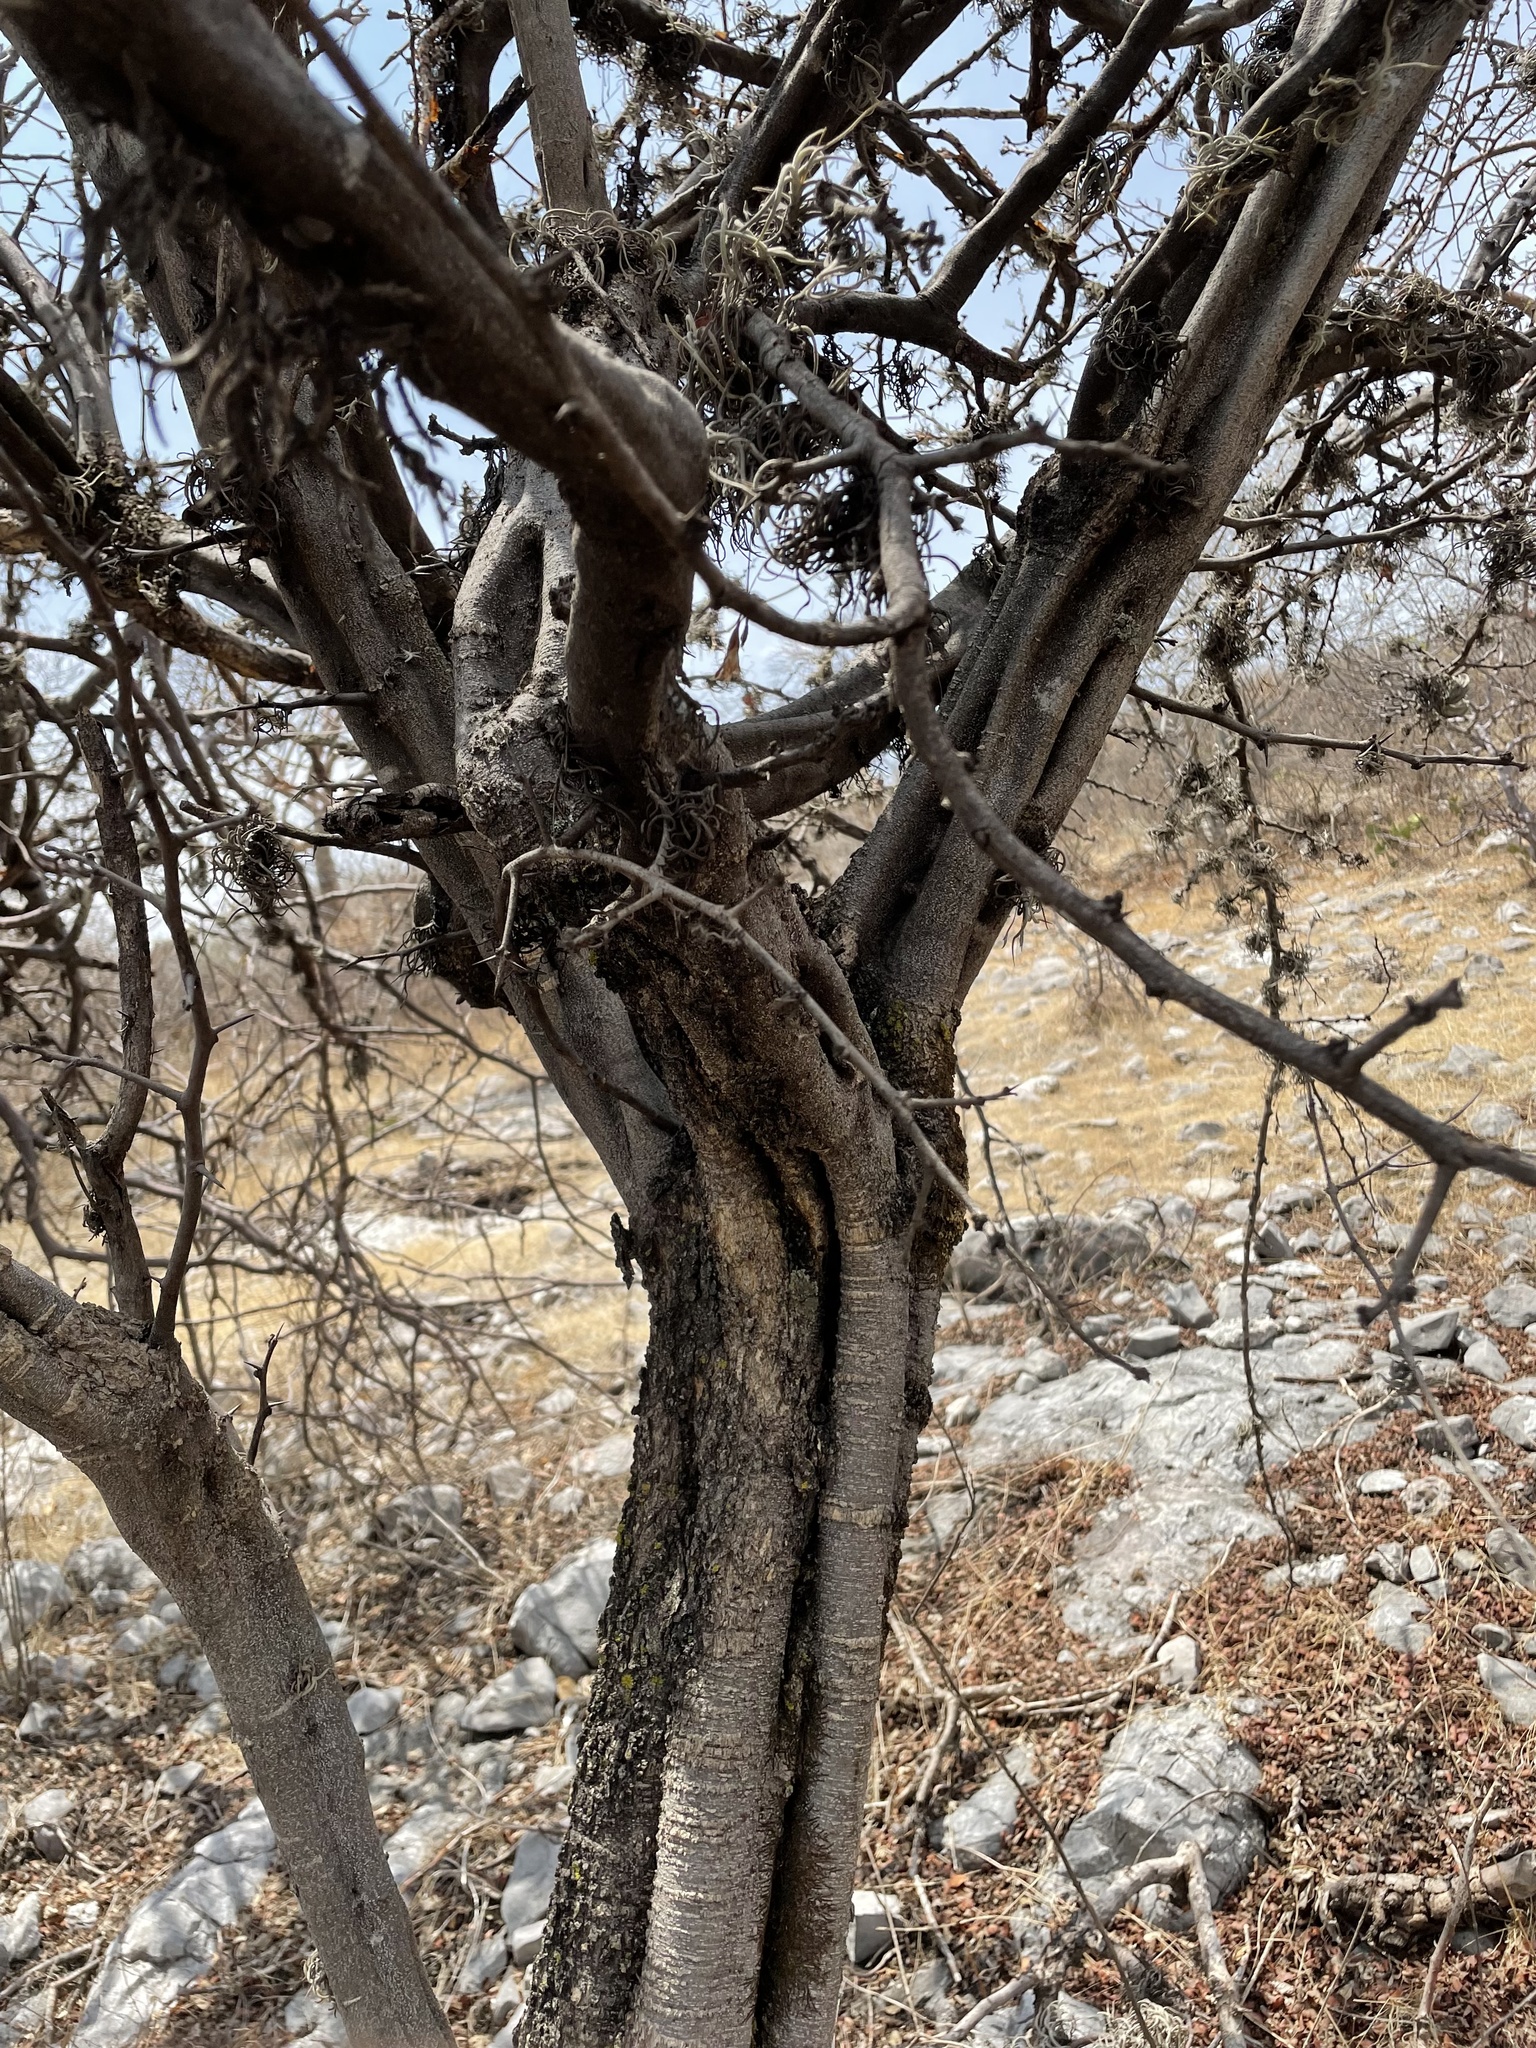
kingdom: Plantae
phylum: Tracheophyta
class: Magnoliopsida
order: Fabales
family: Fabaceae
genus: Haematoxylum
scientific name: Haematoxylum brasiletto
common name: Peachwood
